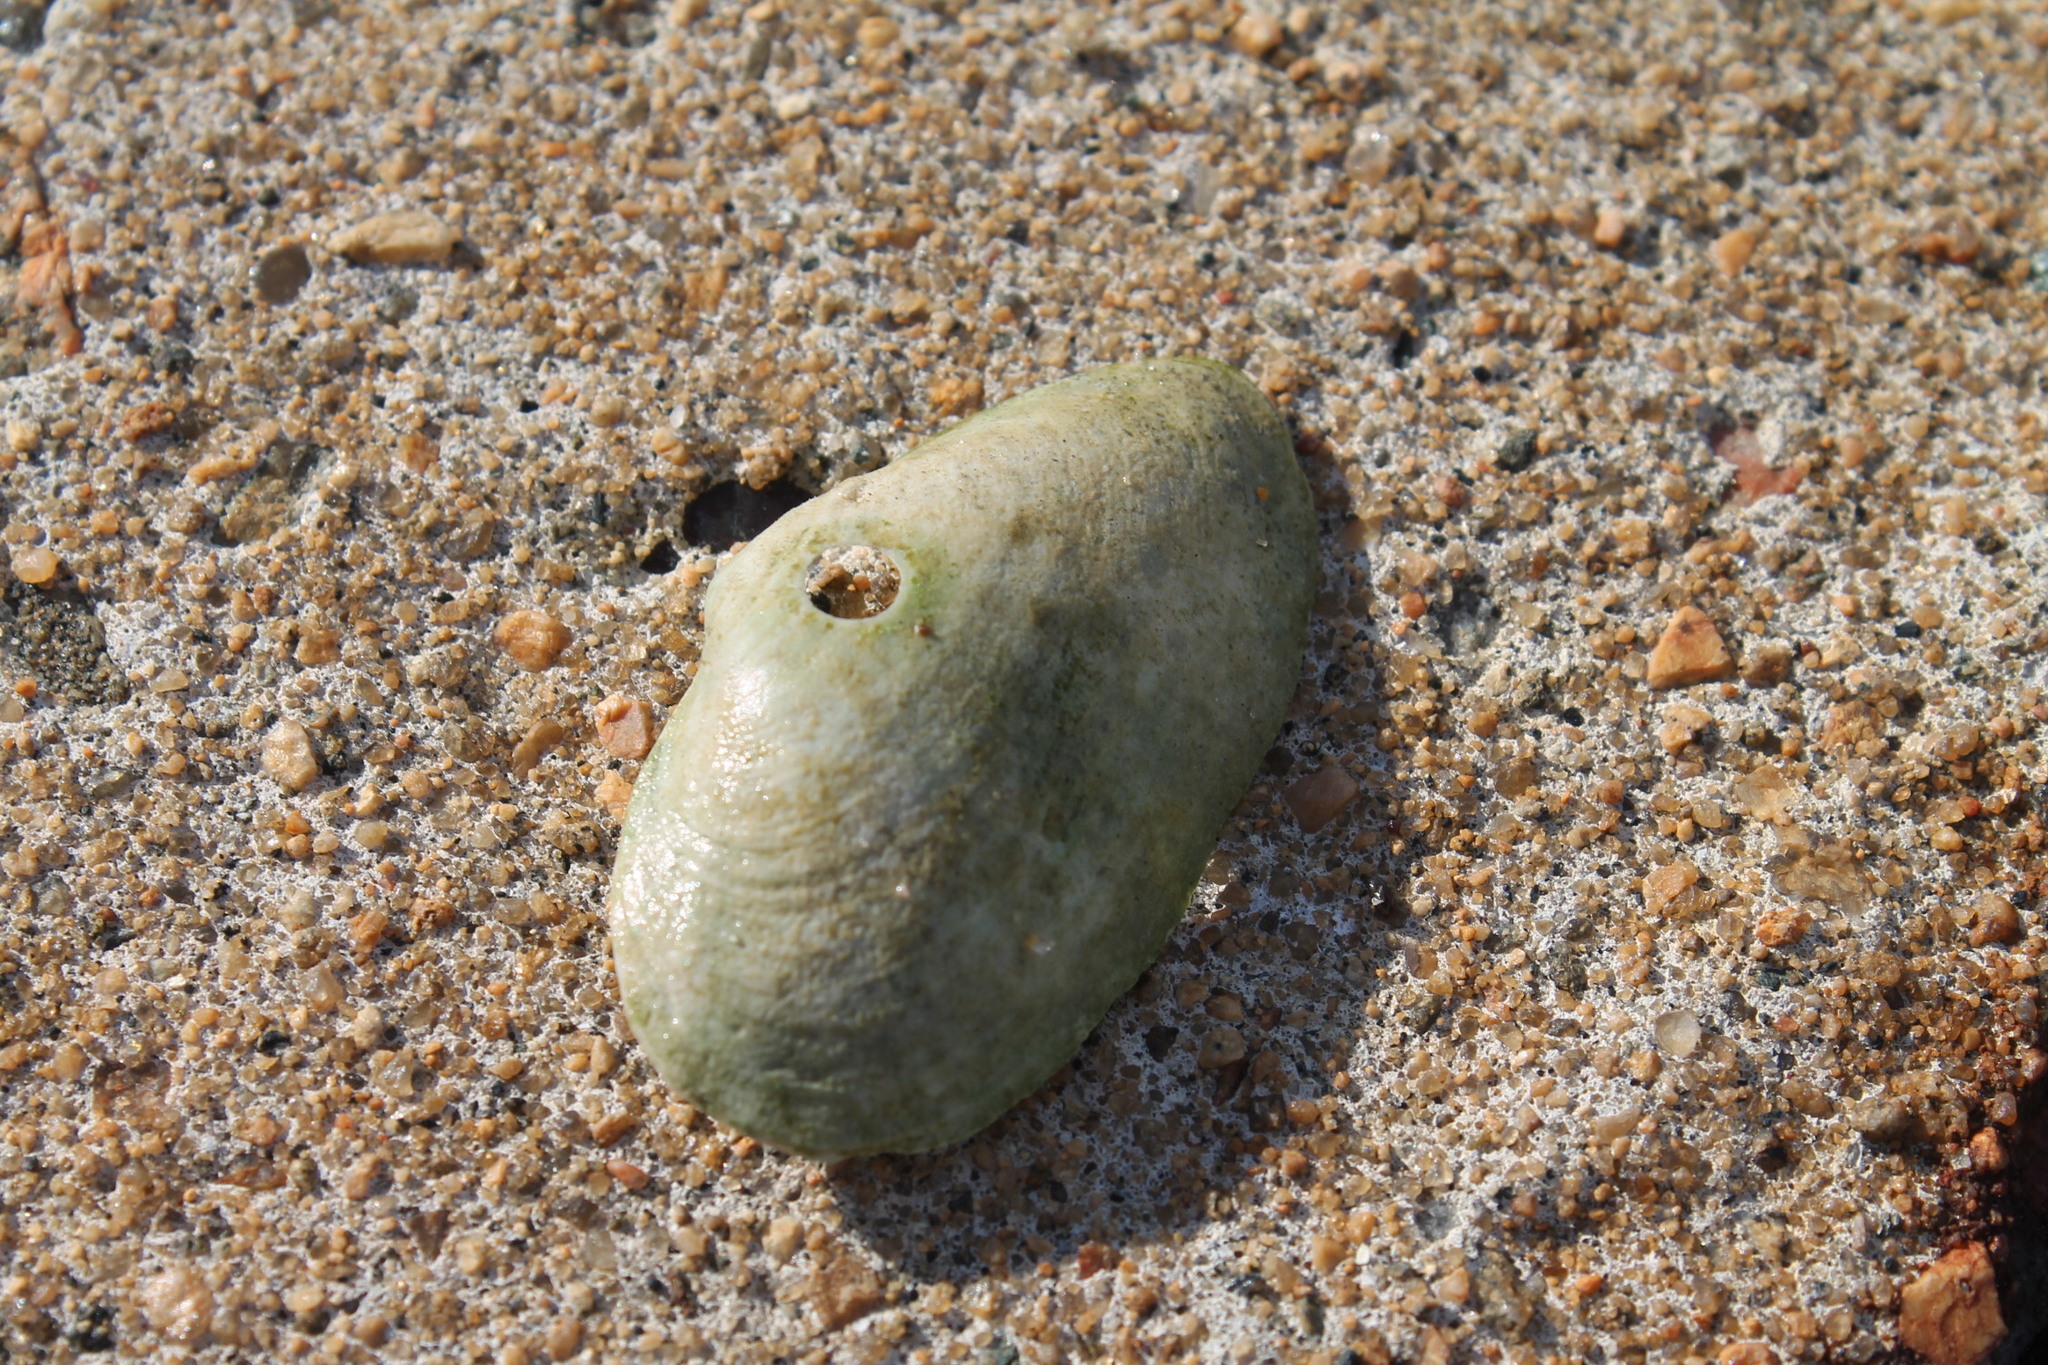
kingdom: Animalia
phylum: Mollusca
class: Bivalvia
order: Myida
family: Myidae
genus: Mya
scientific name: Mya arenaria
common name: Soft-shelled clam
